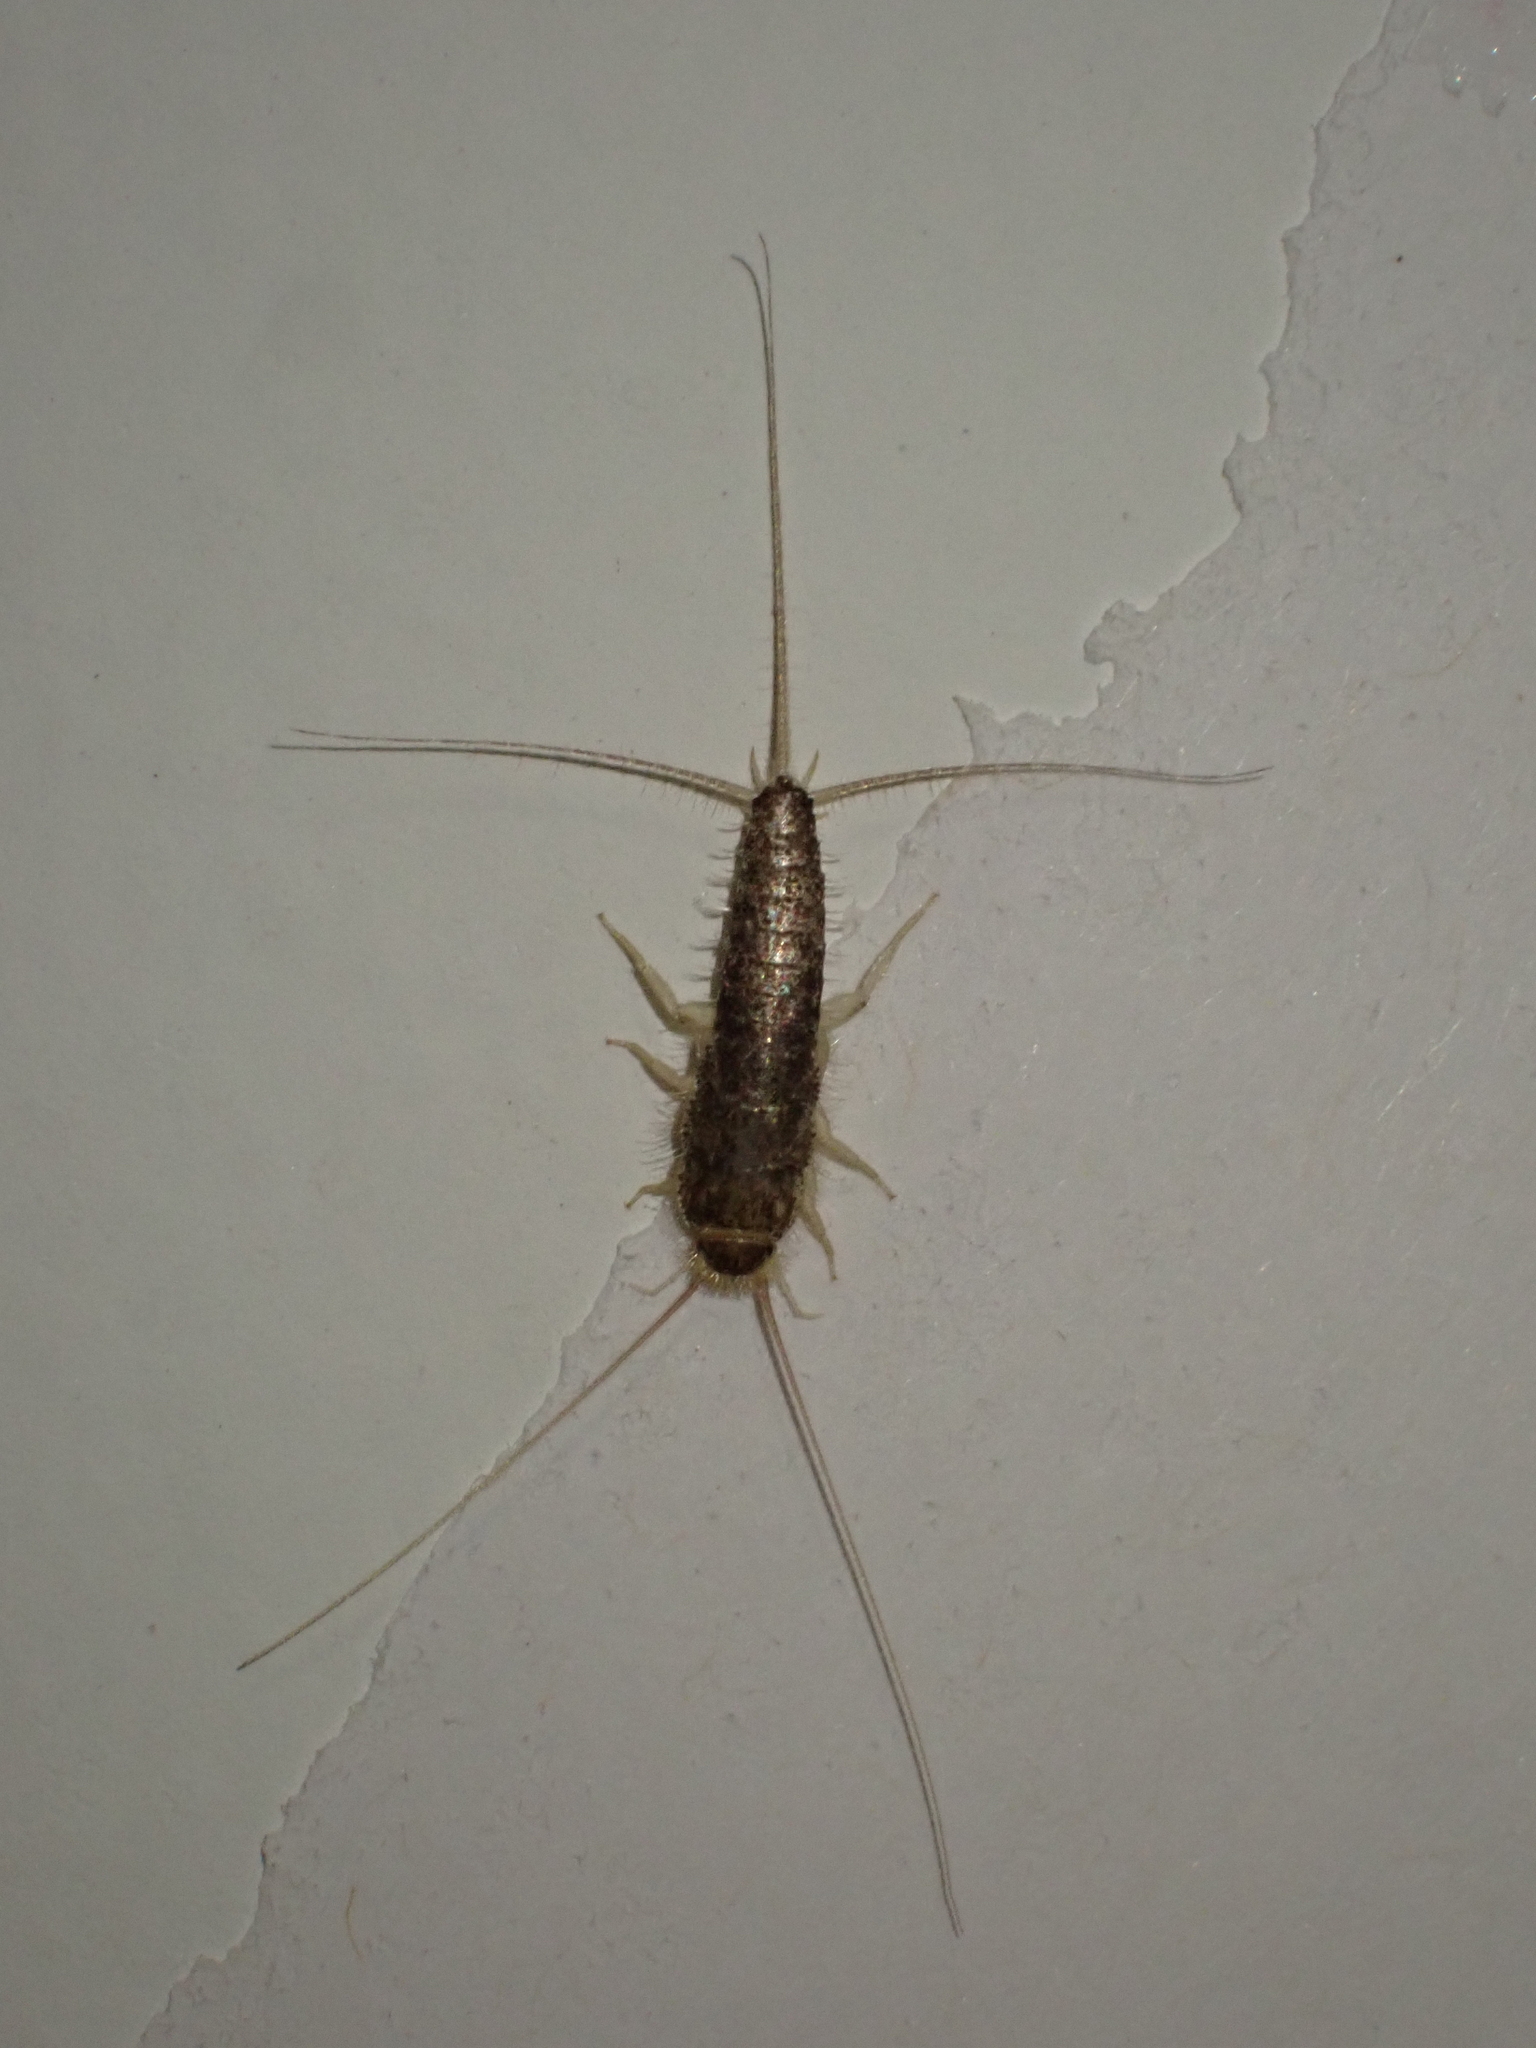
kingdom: Animalia
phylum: Arthropoda
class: Insecta
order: Zygentoma
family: Lepismatidae
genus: Ctenolepisma
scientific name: Ctenolepisma longicaudatum
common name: Silverfish
